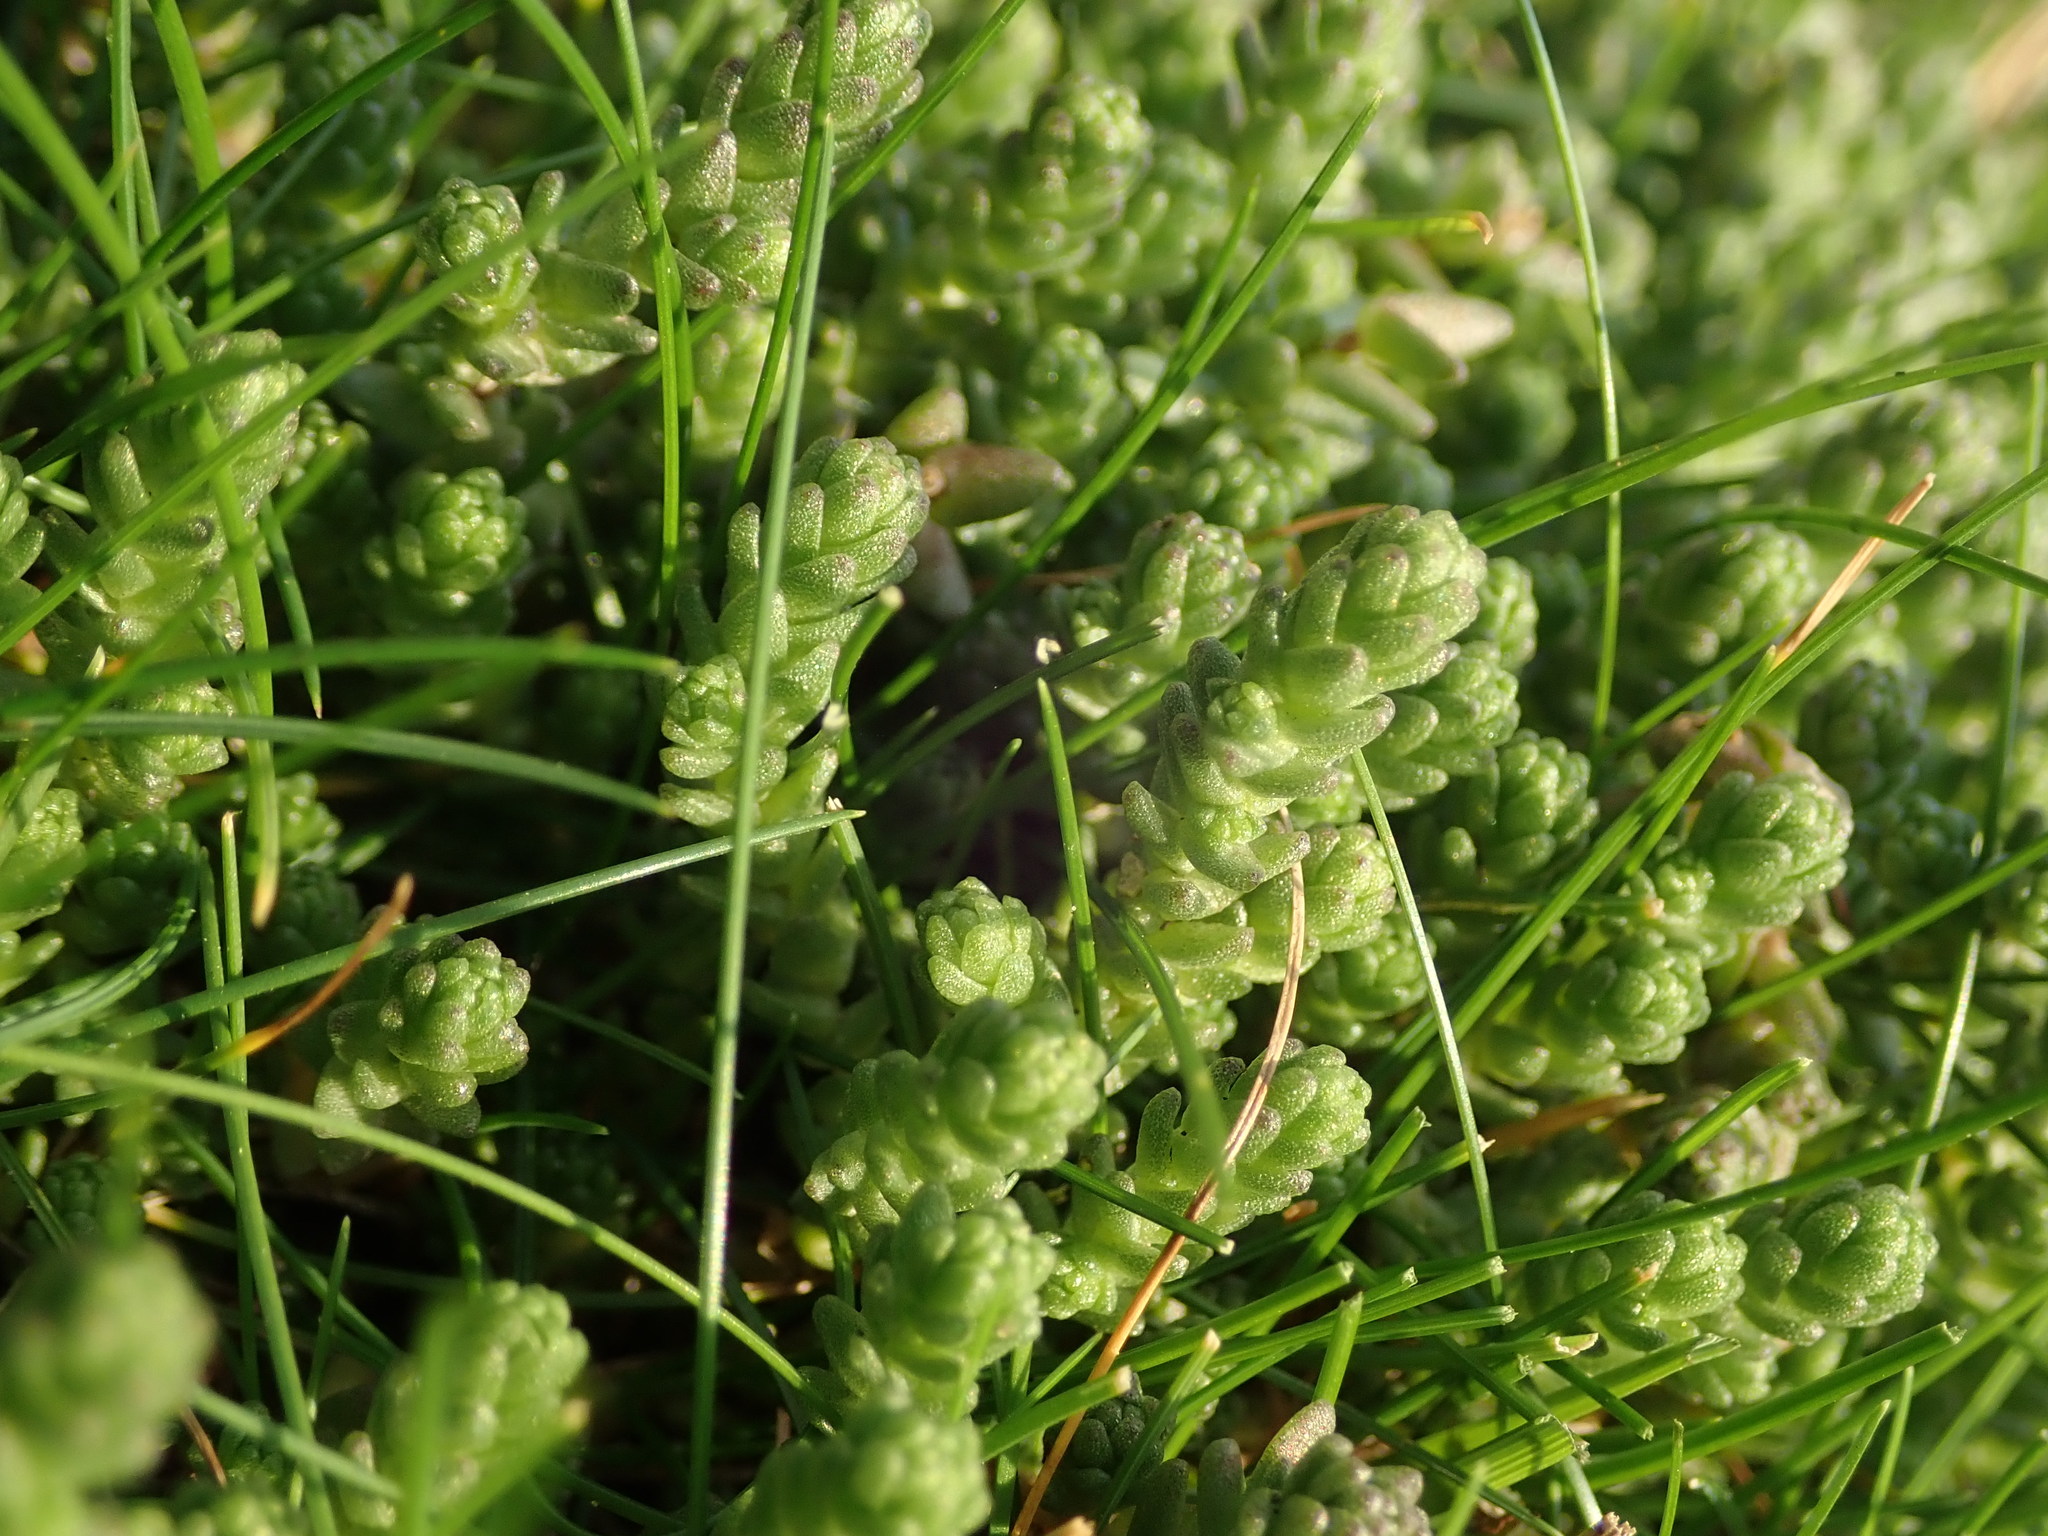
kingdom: Plantae
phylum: Tracheophyta
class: Magnoliopsida
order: Saxifragales
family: Crassulaceae
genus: Sedum
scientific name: Sedum acre
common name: Biting stonecrop
